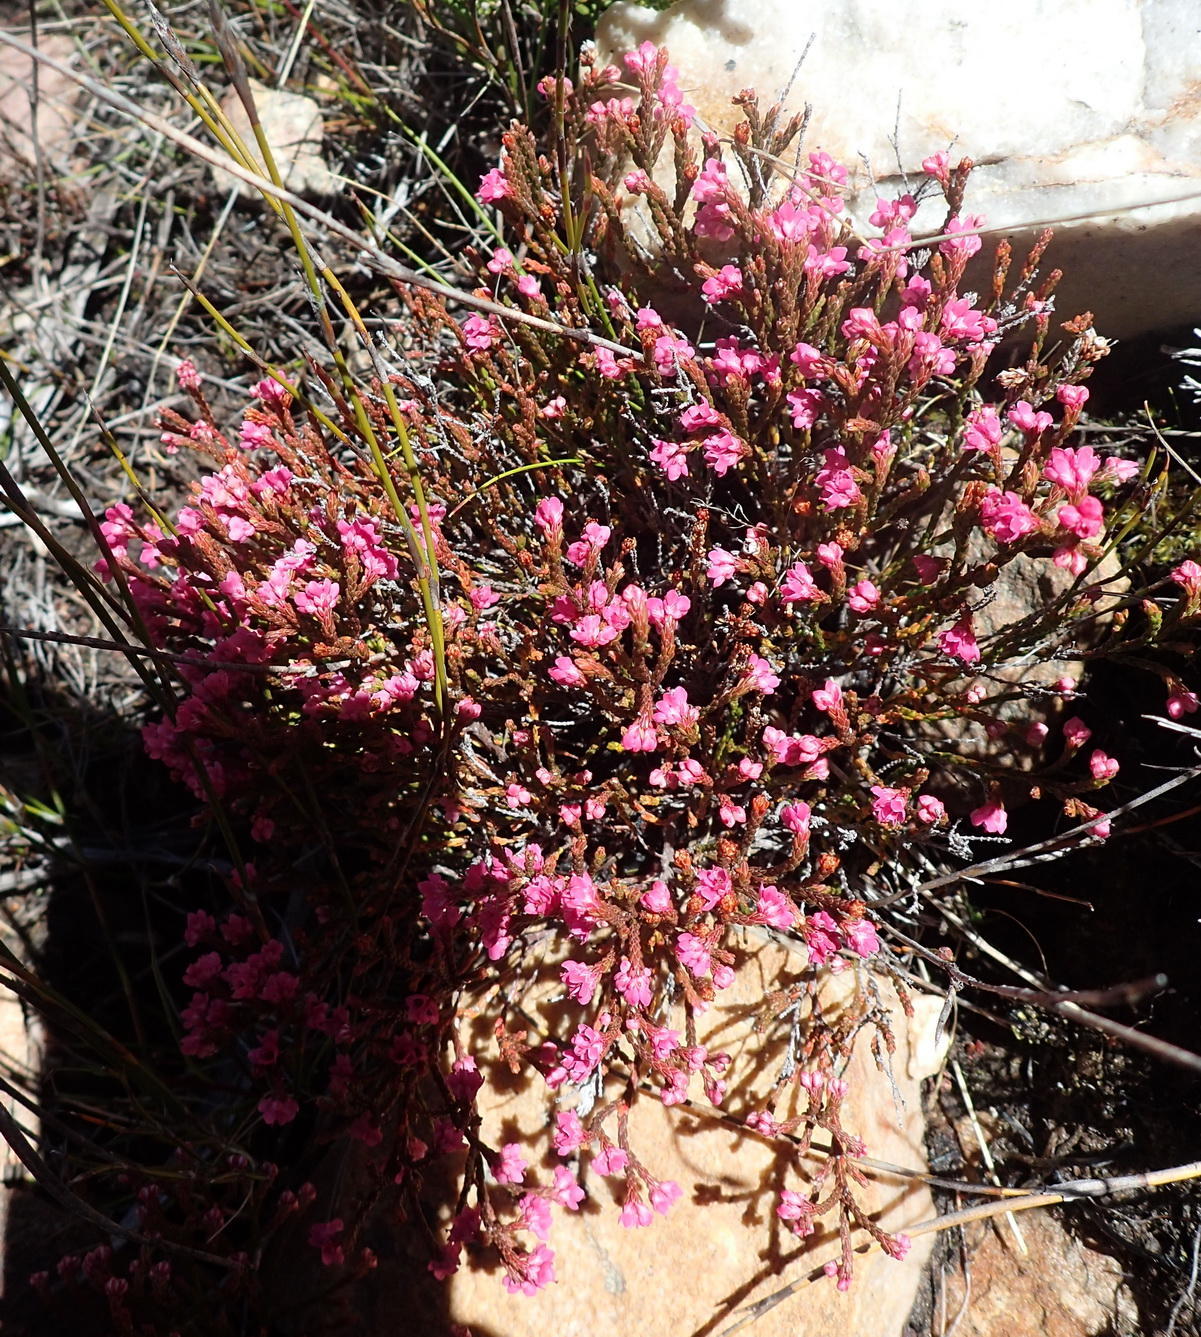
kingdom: Plantae
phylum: Tracheophyta
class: Magnoliopsida
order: Ericales
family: Ericaceae
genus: Erica
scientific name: Erica humifusa
